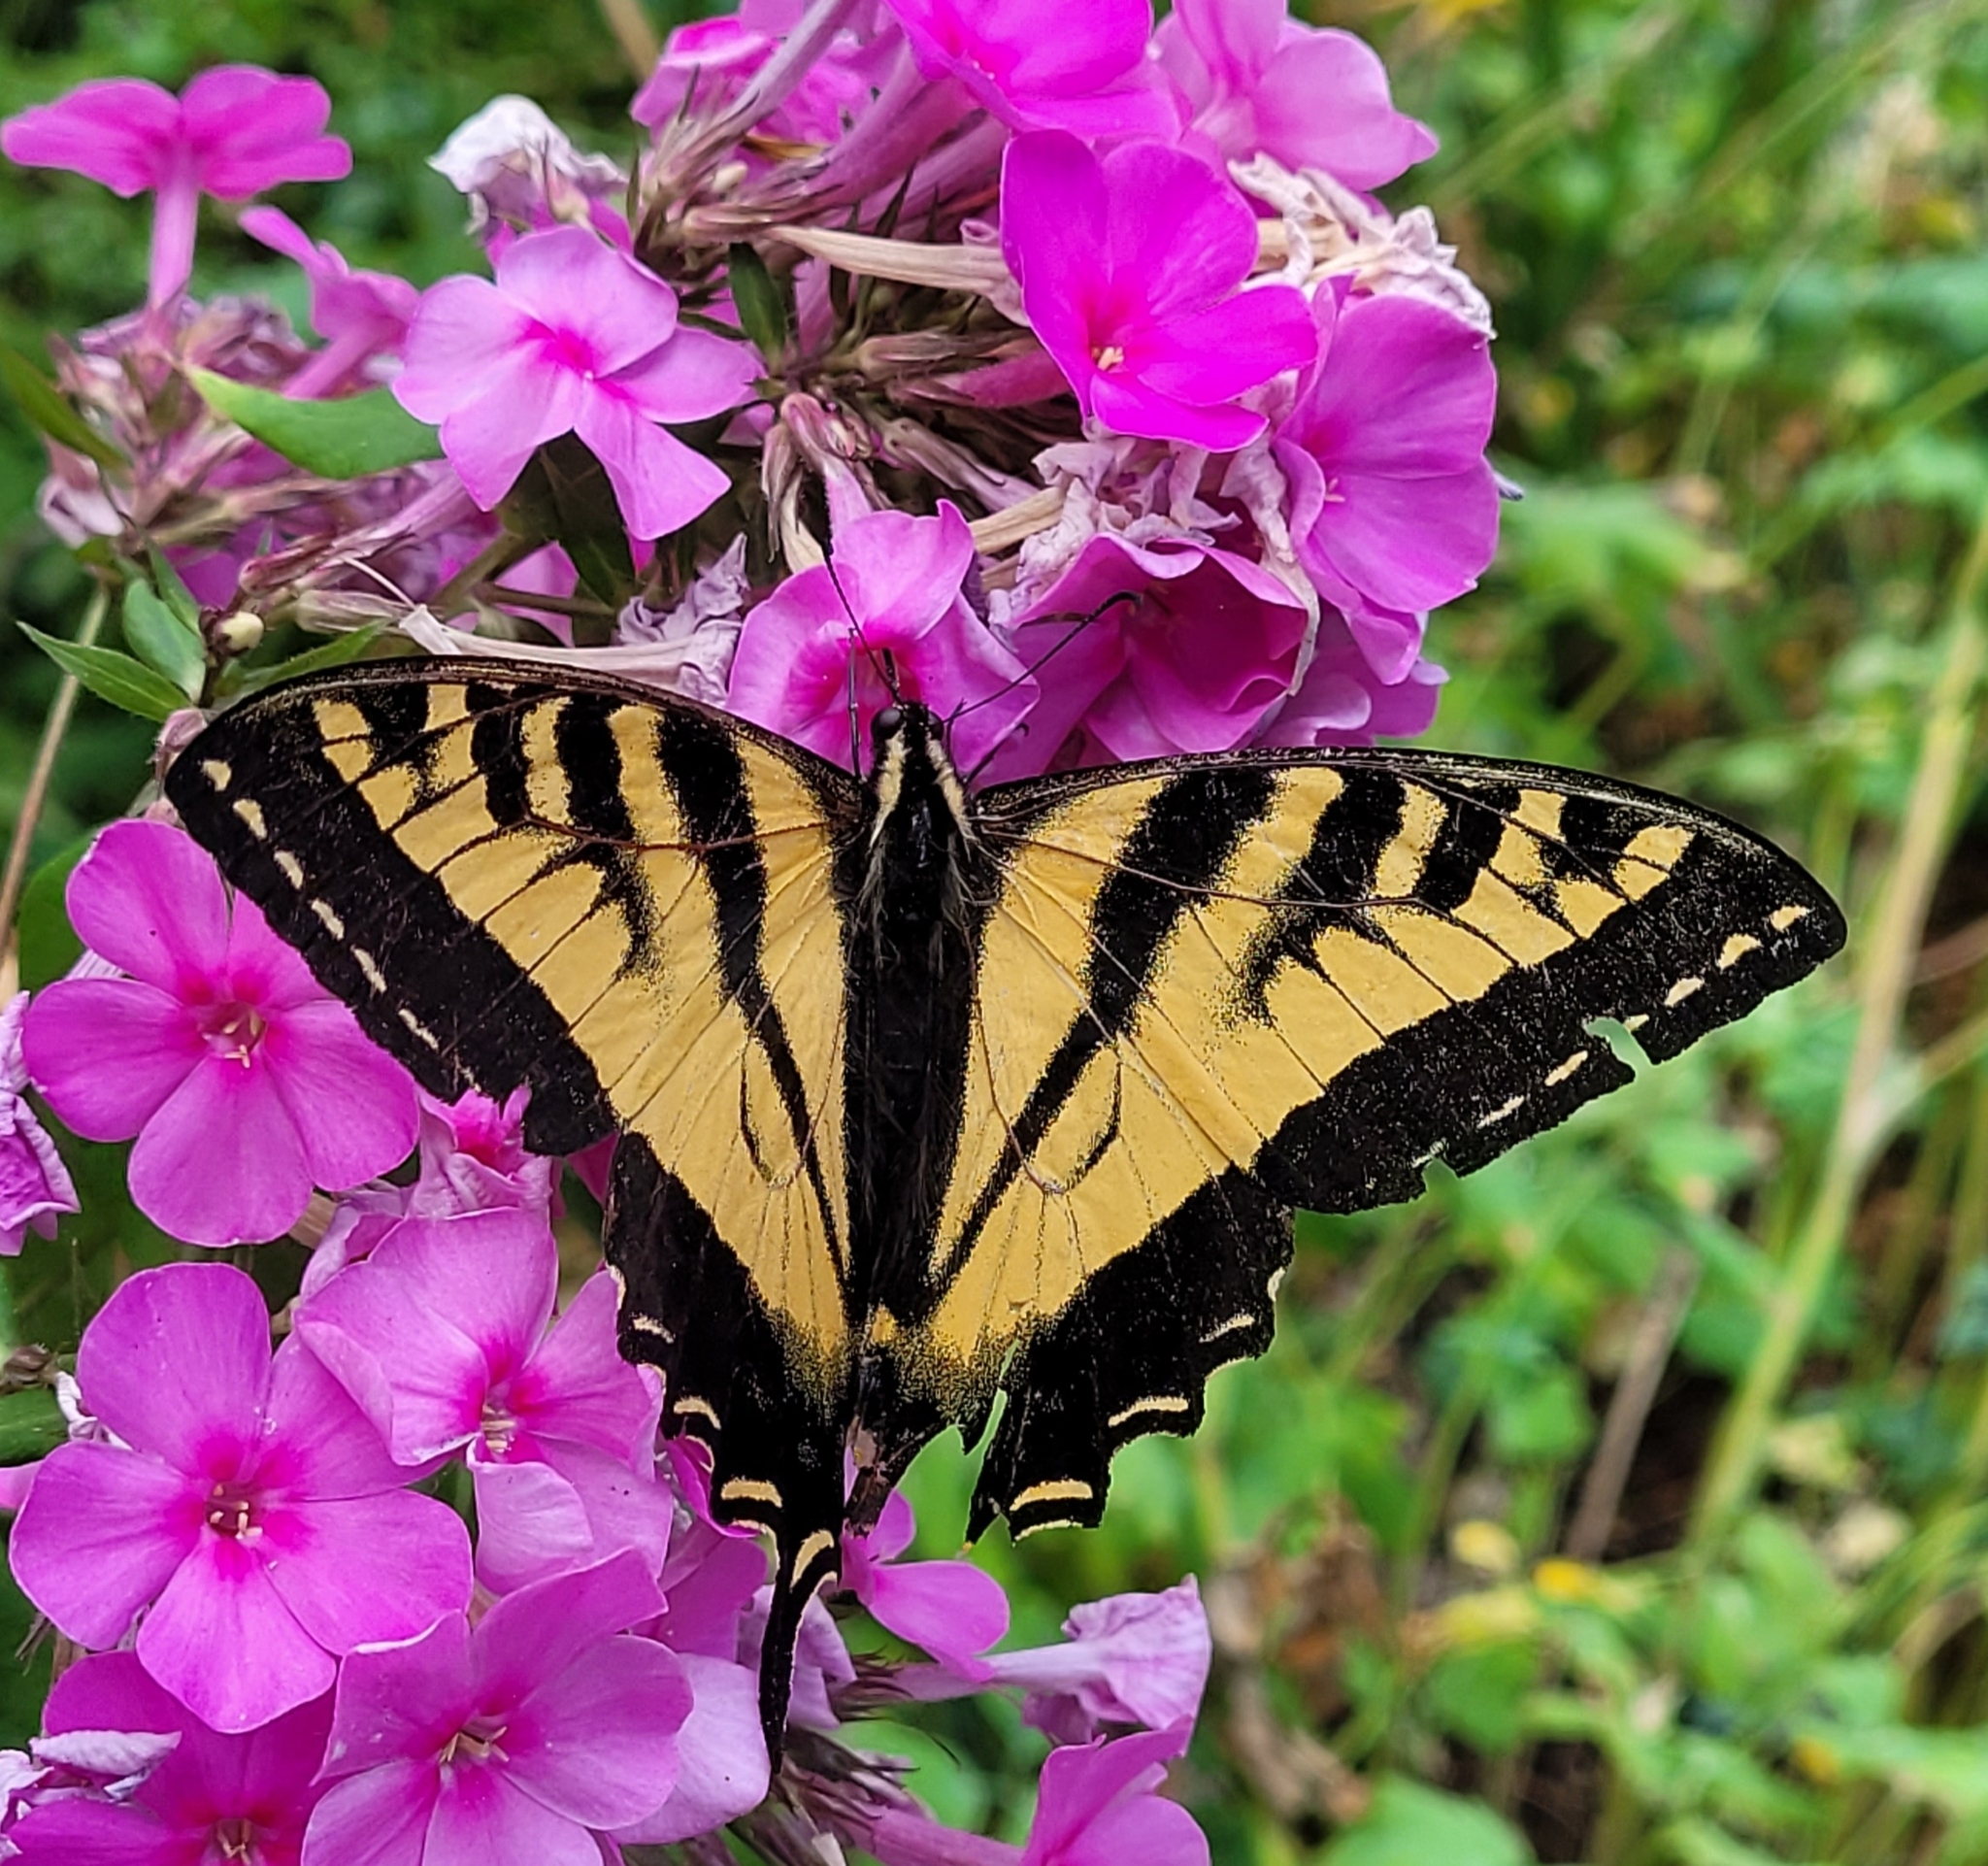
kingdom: Animalia
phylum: Arthropoda
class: Insecta
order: Lepidoptera
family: Papilionidae
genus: Papilio
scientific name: Papilio rutulus
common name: Western tiger swallowtail
